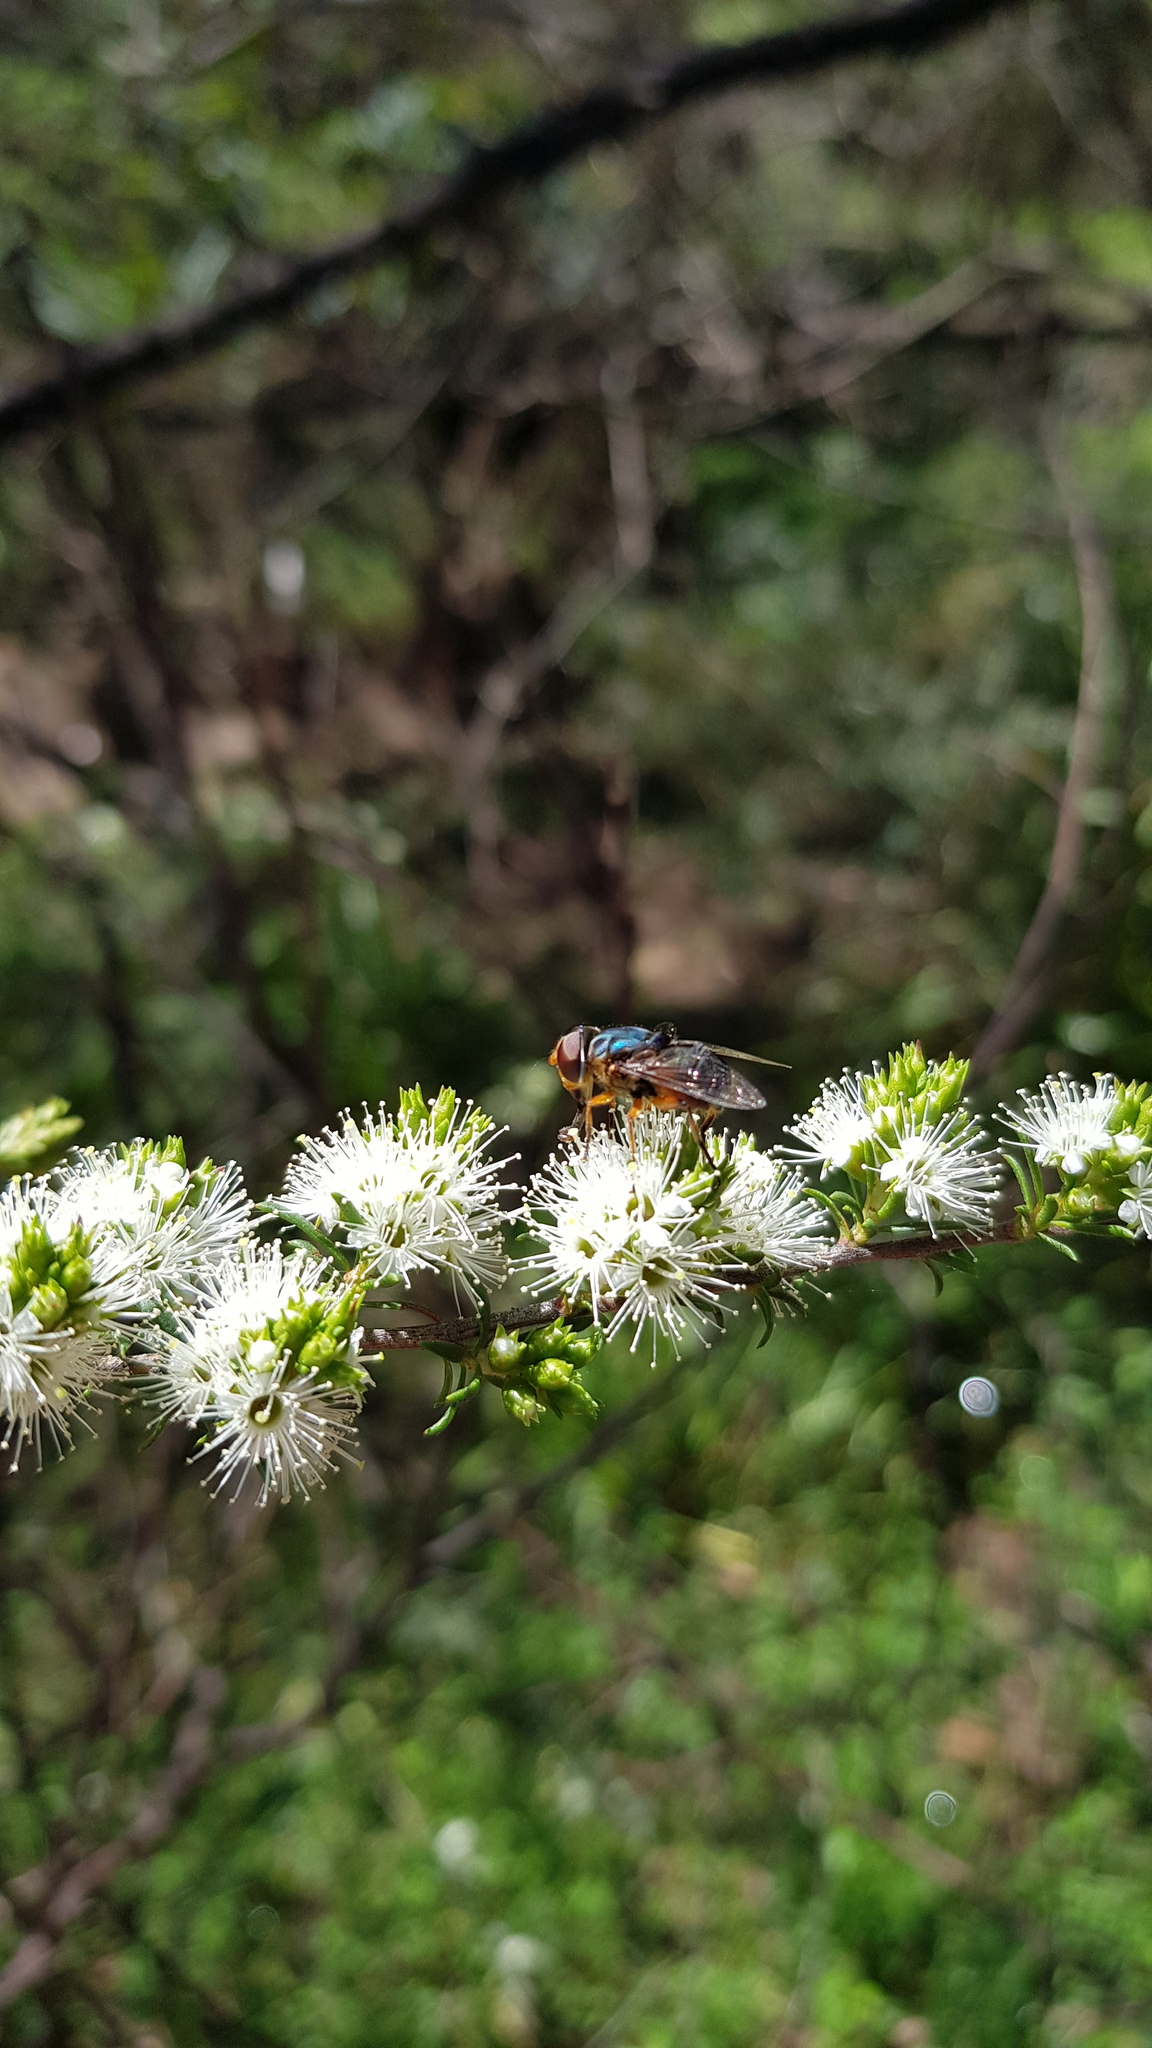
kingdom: Animalia
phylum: Arthropoda
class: Insecta
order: Diptera
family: Syrphidae
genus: Austalis
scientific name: Austalis copiosa
